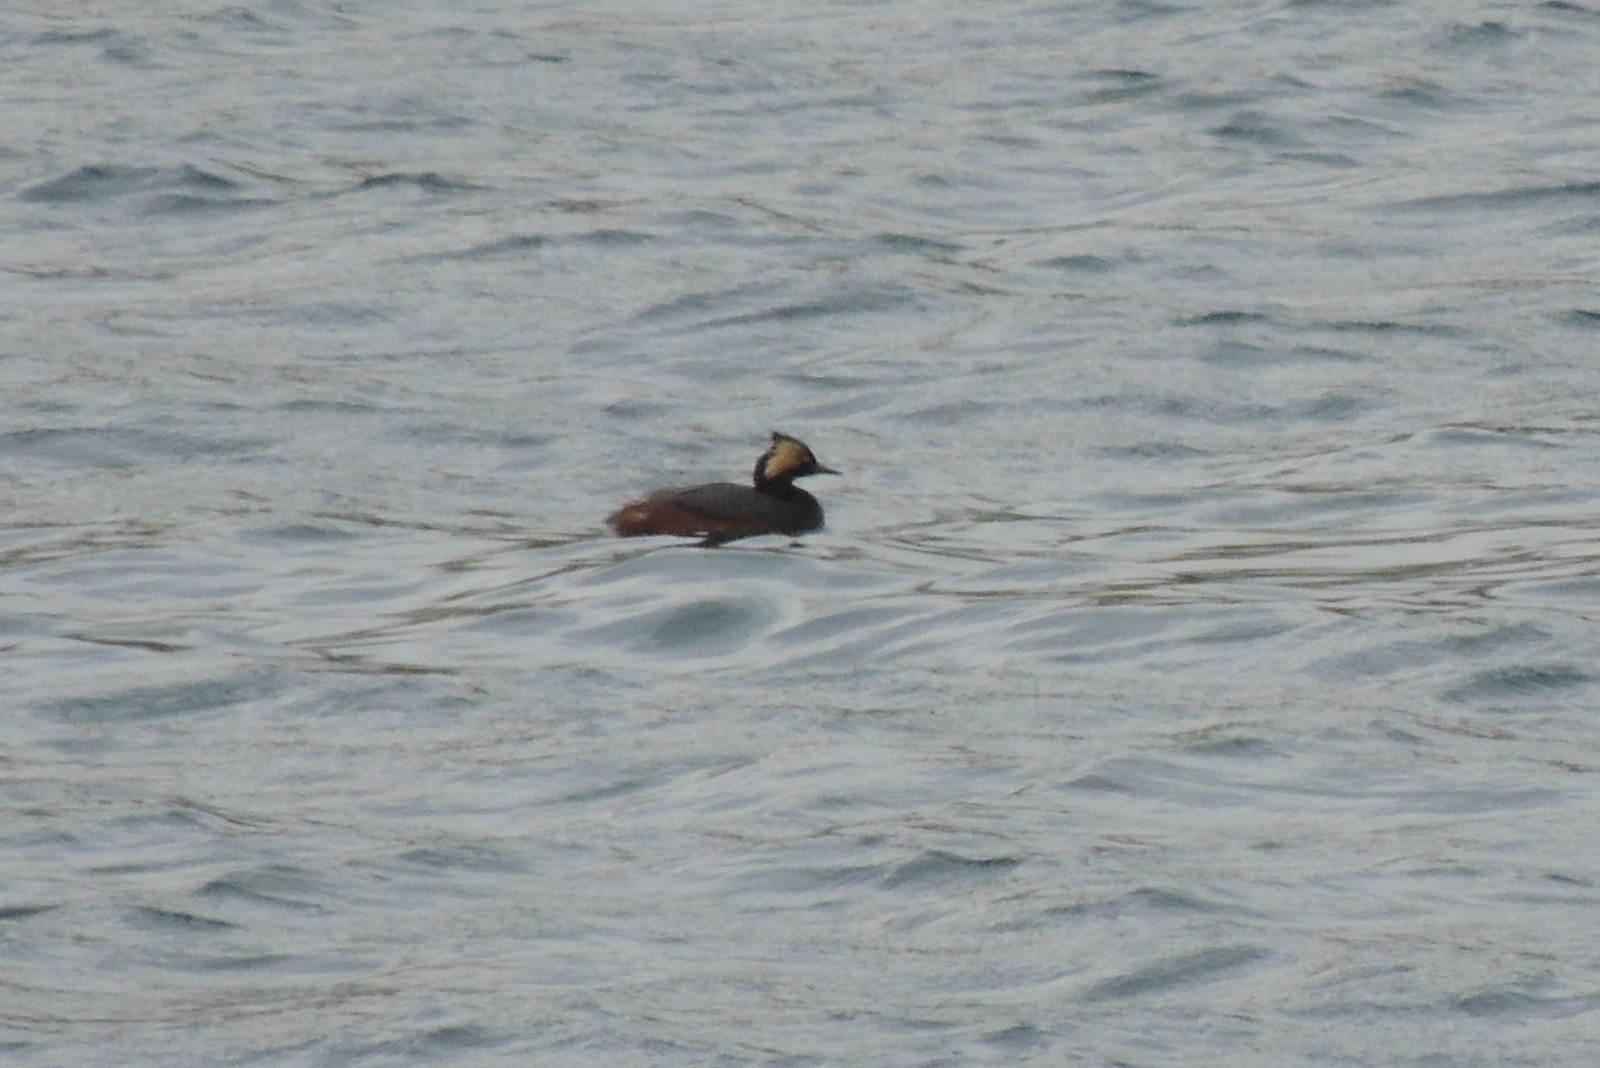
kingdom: Animalia
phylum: Chordata
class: Aves
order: Podicipediformes
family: Podicipedidae
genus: Podiceps
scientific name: Podiceps nigricollis
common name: Black-necked grebe
